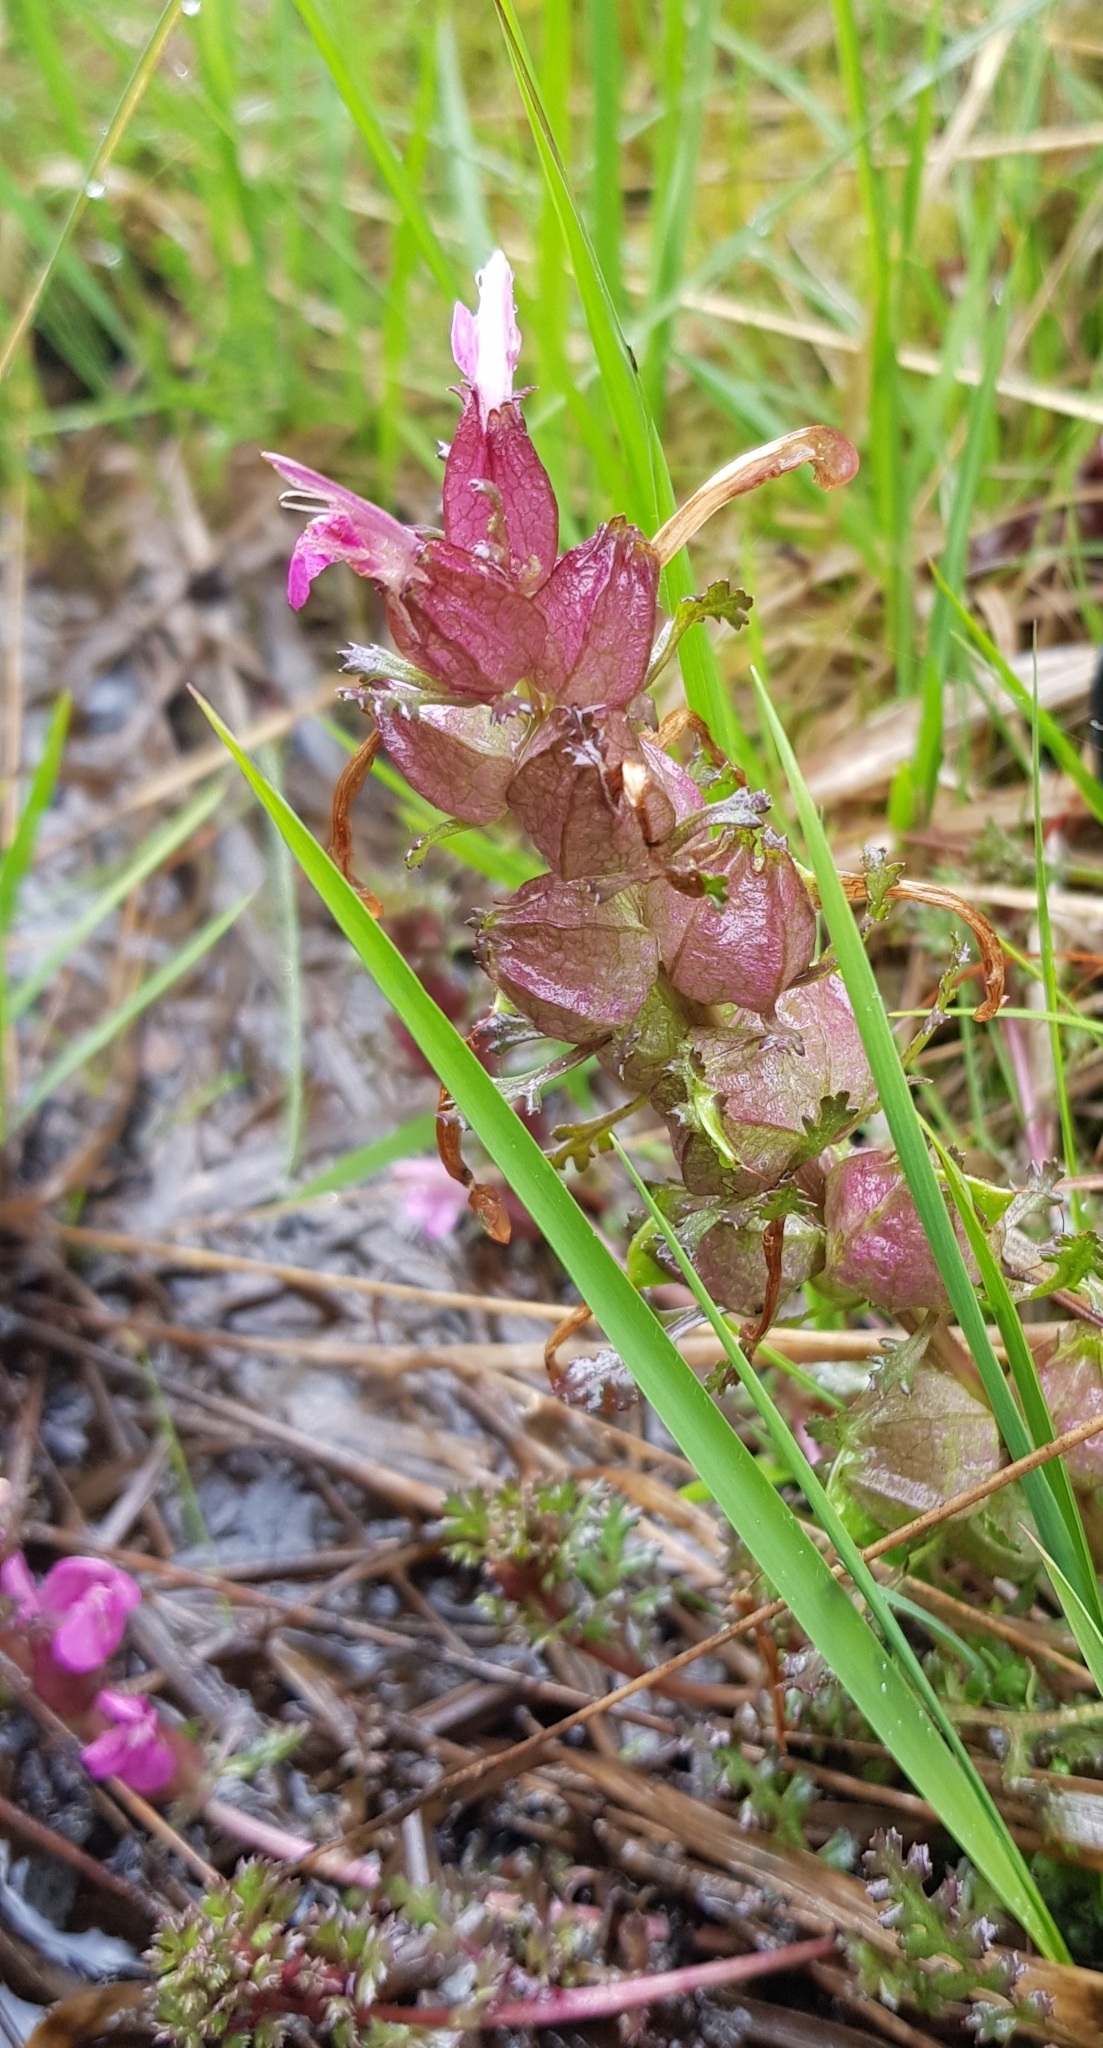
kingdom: Plantae
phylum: Tracheophyta
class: Magnoliopsida
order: Lamiales
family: Orobanchaceae
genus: Pedicularis
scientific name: Pedicularis sylvatica
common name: Lousewort
